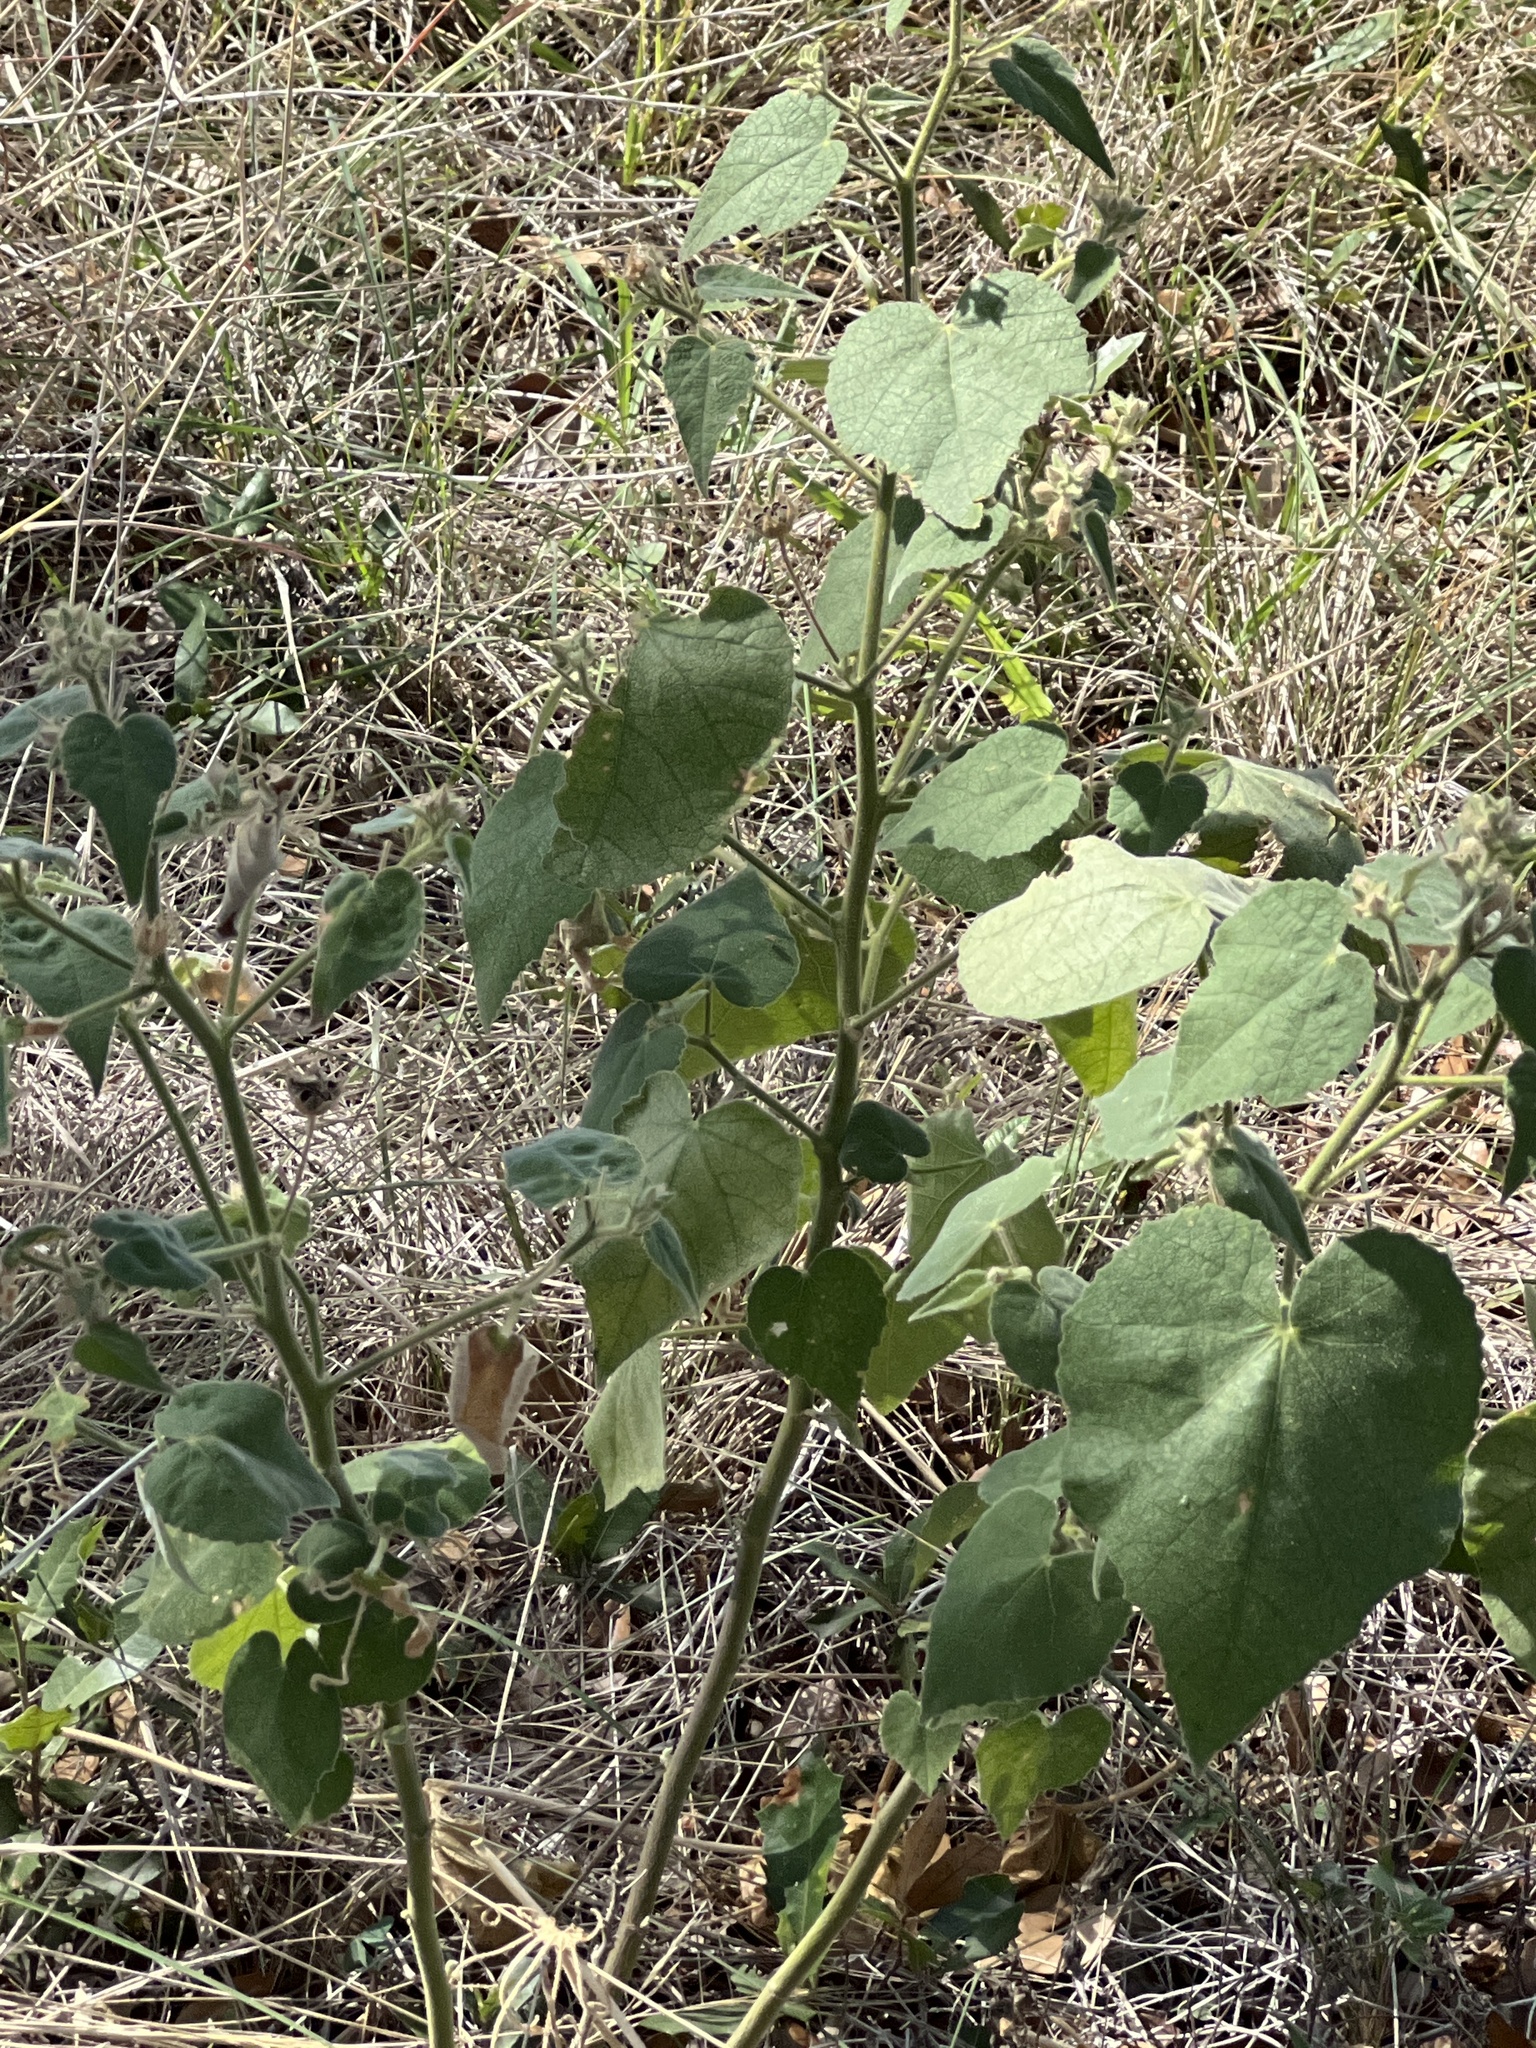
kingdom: Plantae
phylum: Tracheophyta
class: Magnoliopsida
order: Malvales
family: Malvaceae
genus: Allowissadula
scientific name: Allowissadula holosericea
